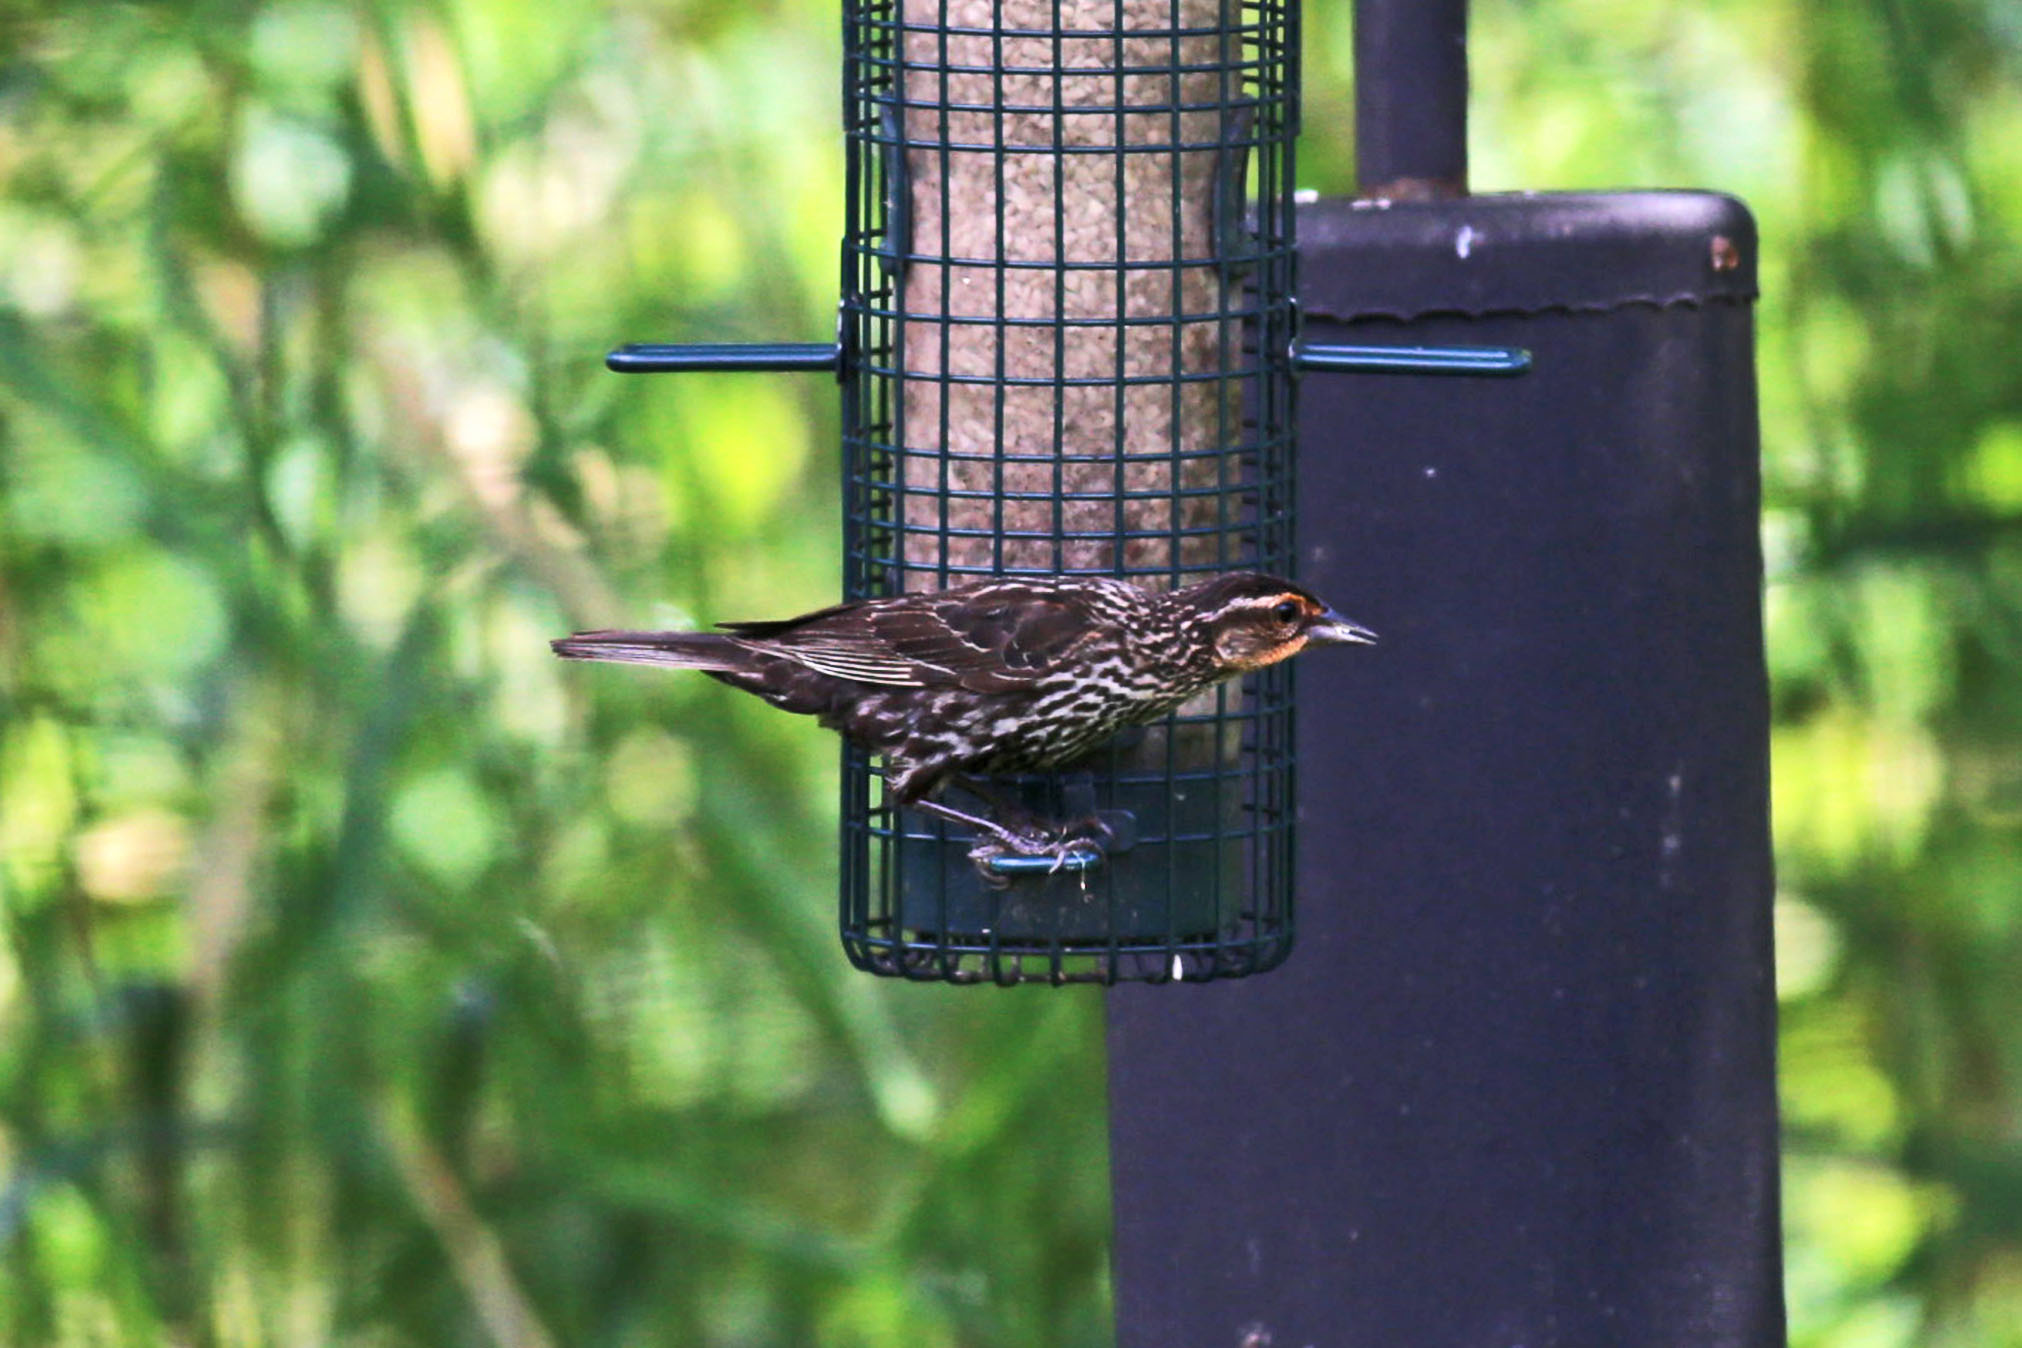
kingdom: Animalia
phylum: Chordata
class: Aves
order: Passeriformes
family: Icteridae
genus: Agelaius
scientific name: Agelaius phoeniceus
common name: Red-winged blackbird
